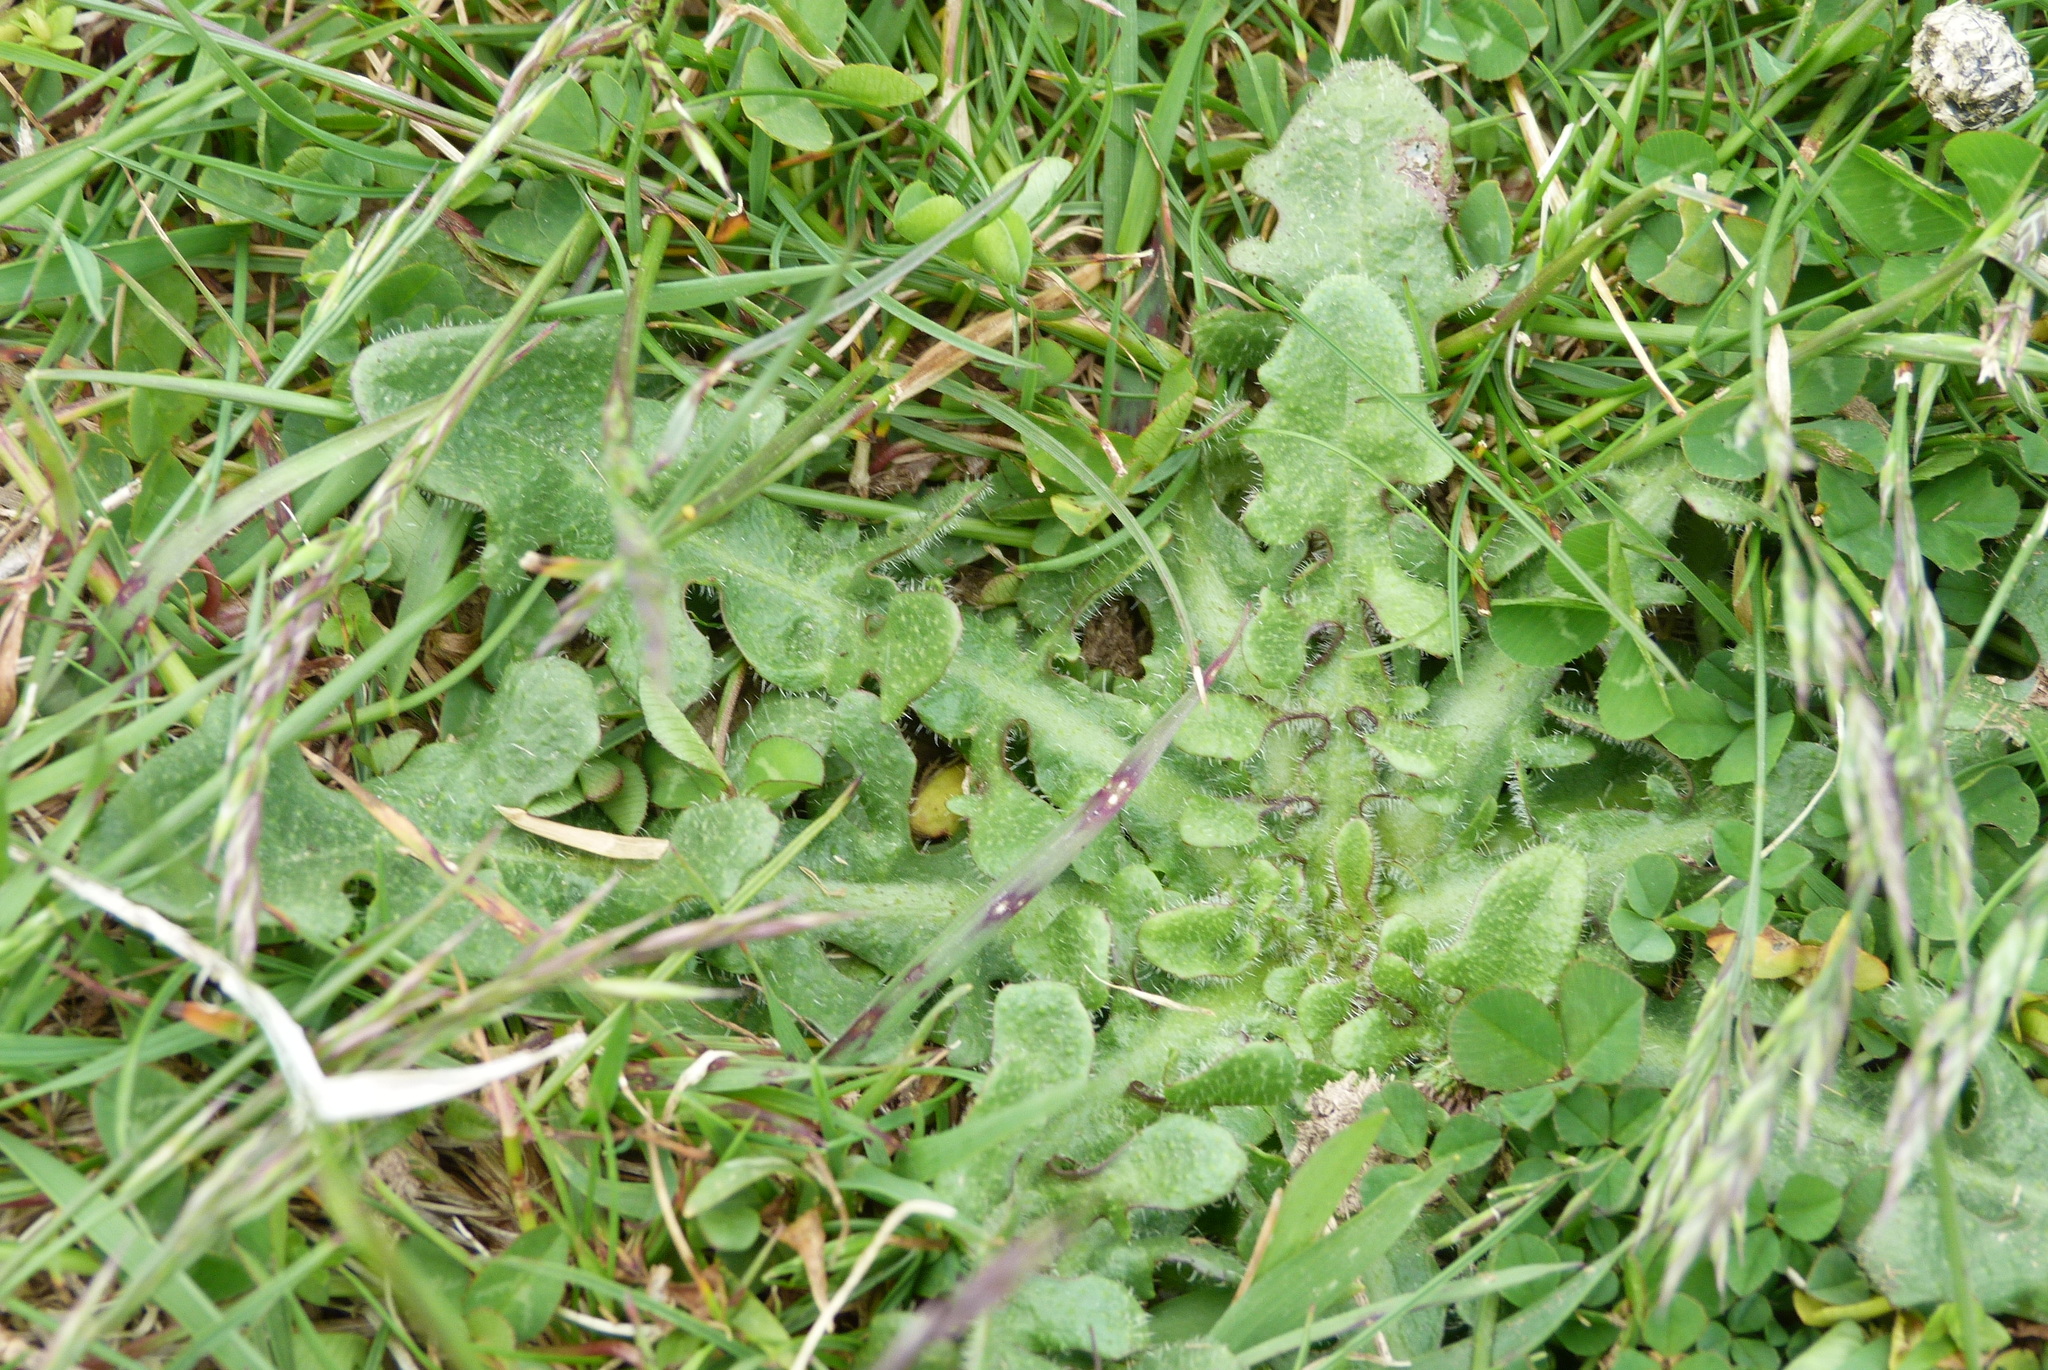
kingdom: Plantae
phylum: Tracheophyta
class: Magnoliopsida
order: Asterales
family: Asteraceae
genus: Hypochaeris
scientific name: Hypochaeris radicata
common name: Flatweed
